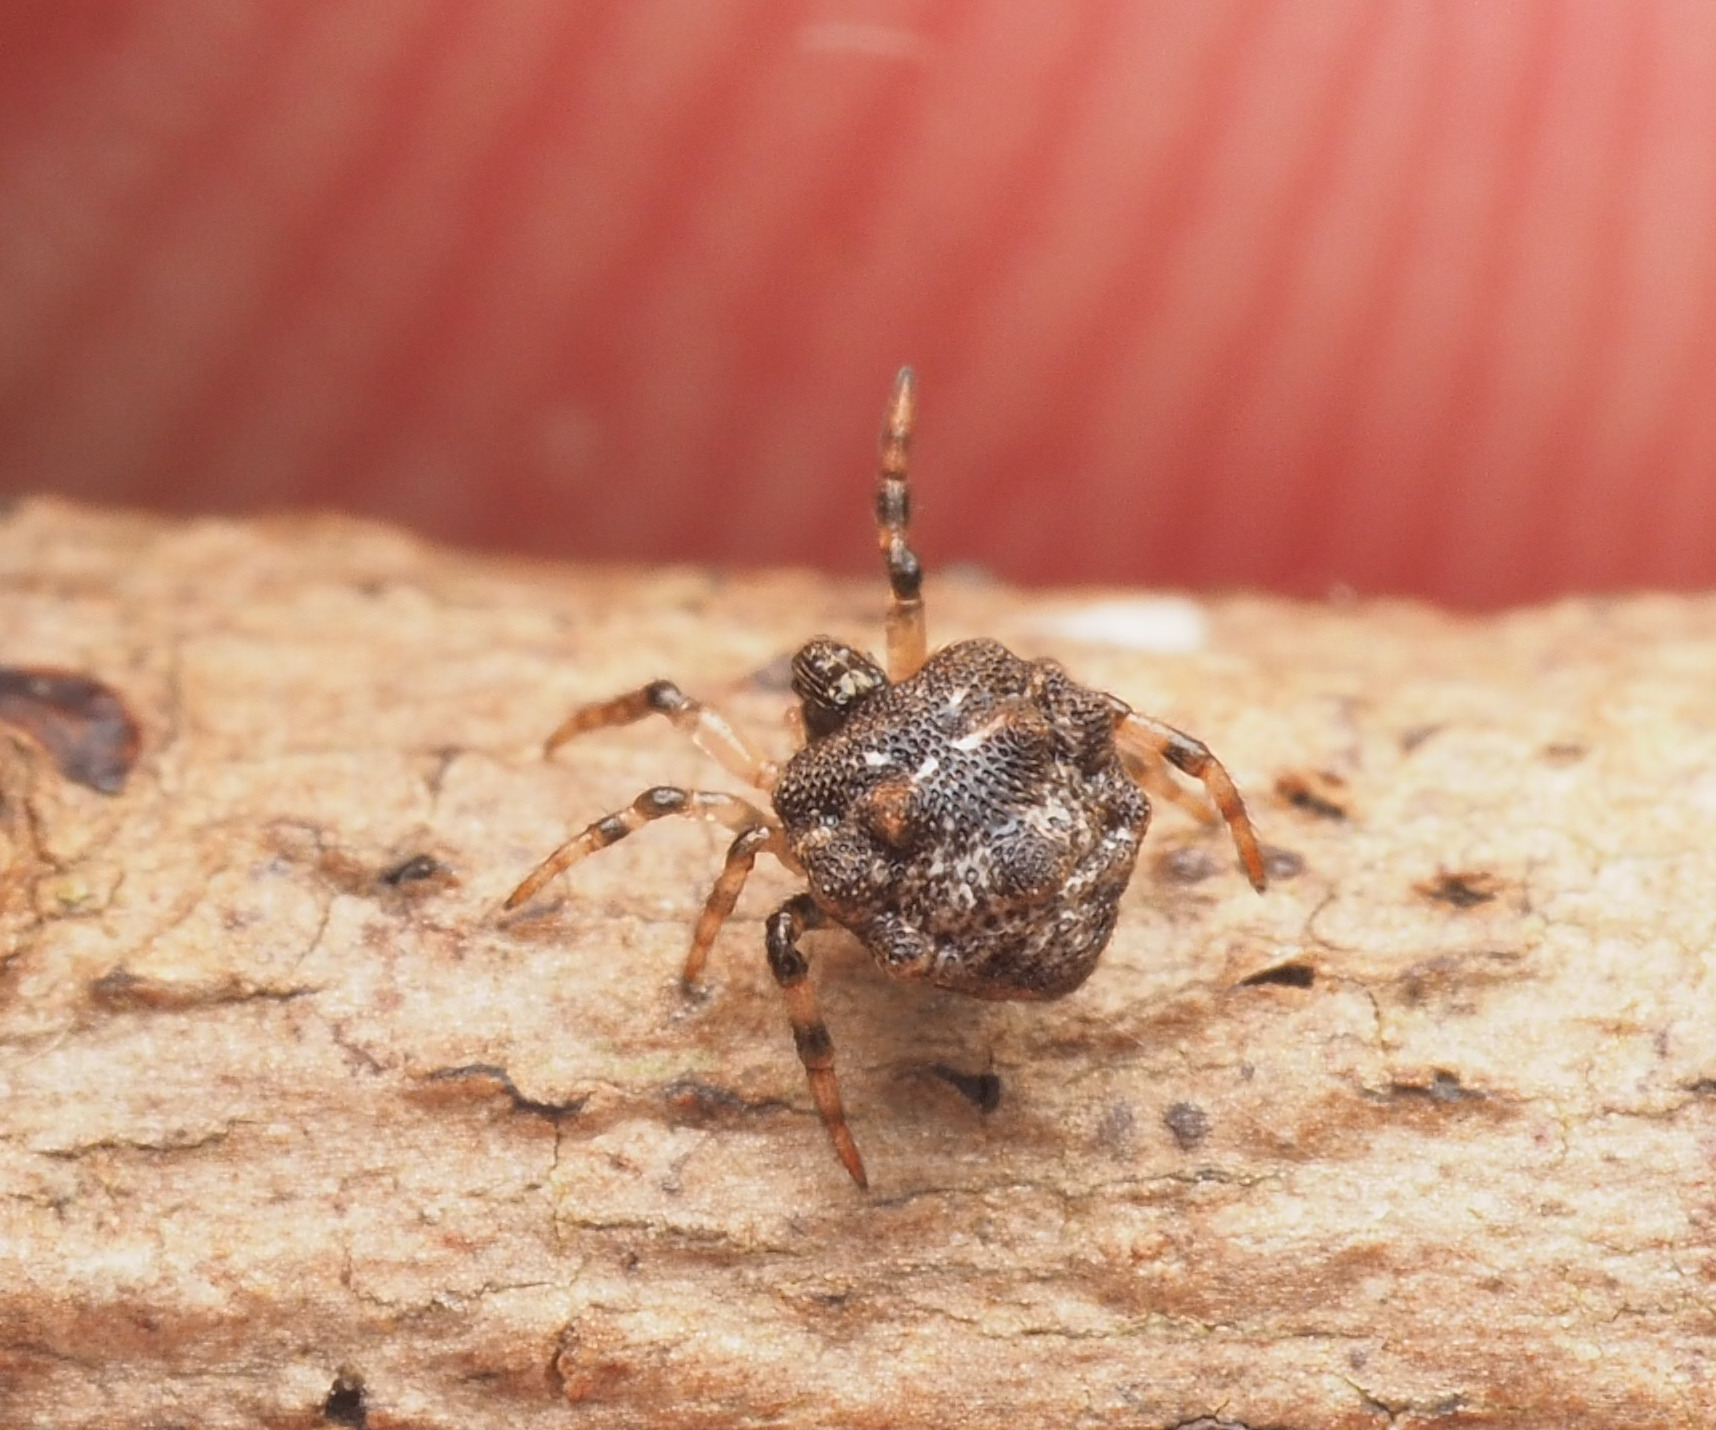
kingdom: Animalia
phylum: Arthropoda
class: Arachnida
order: Araneae
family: Theridiidae
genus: Phoroncidia
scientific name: Phoroncidia trituberculata
